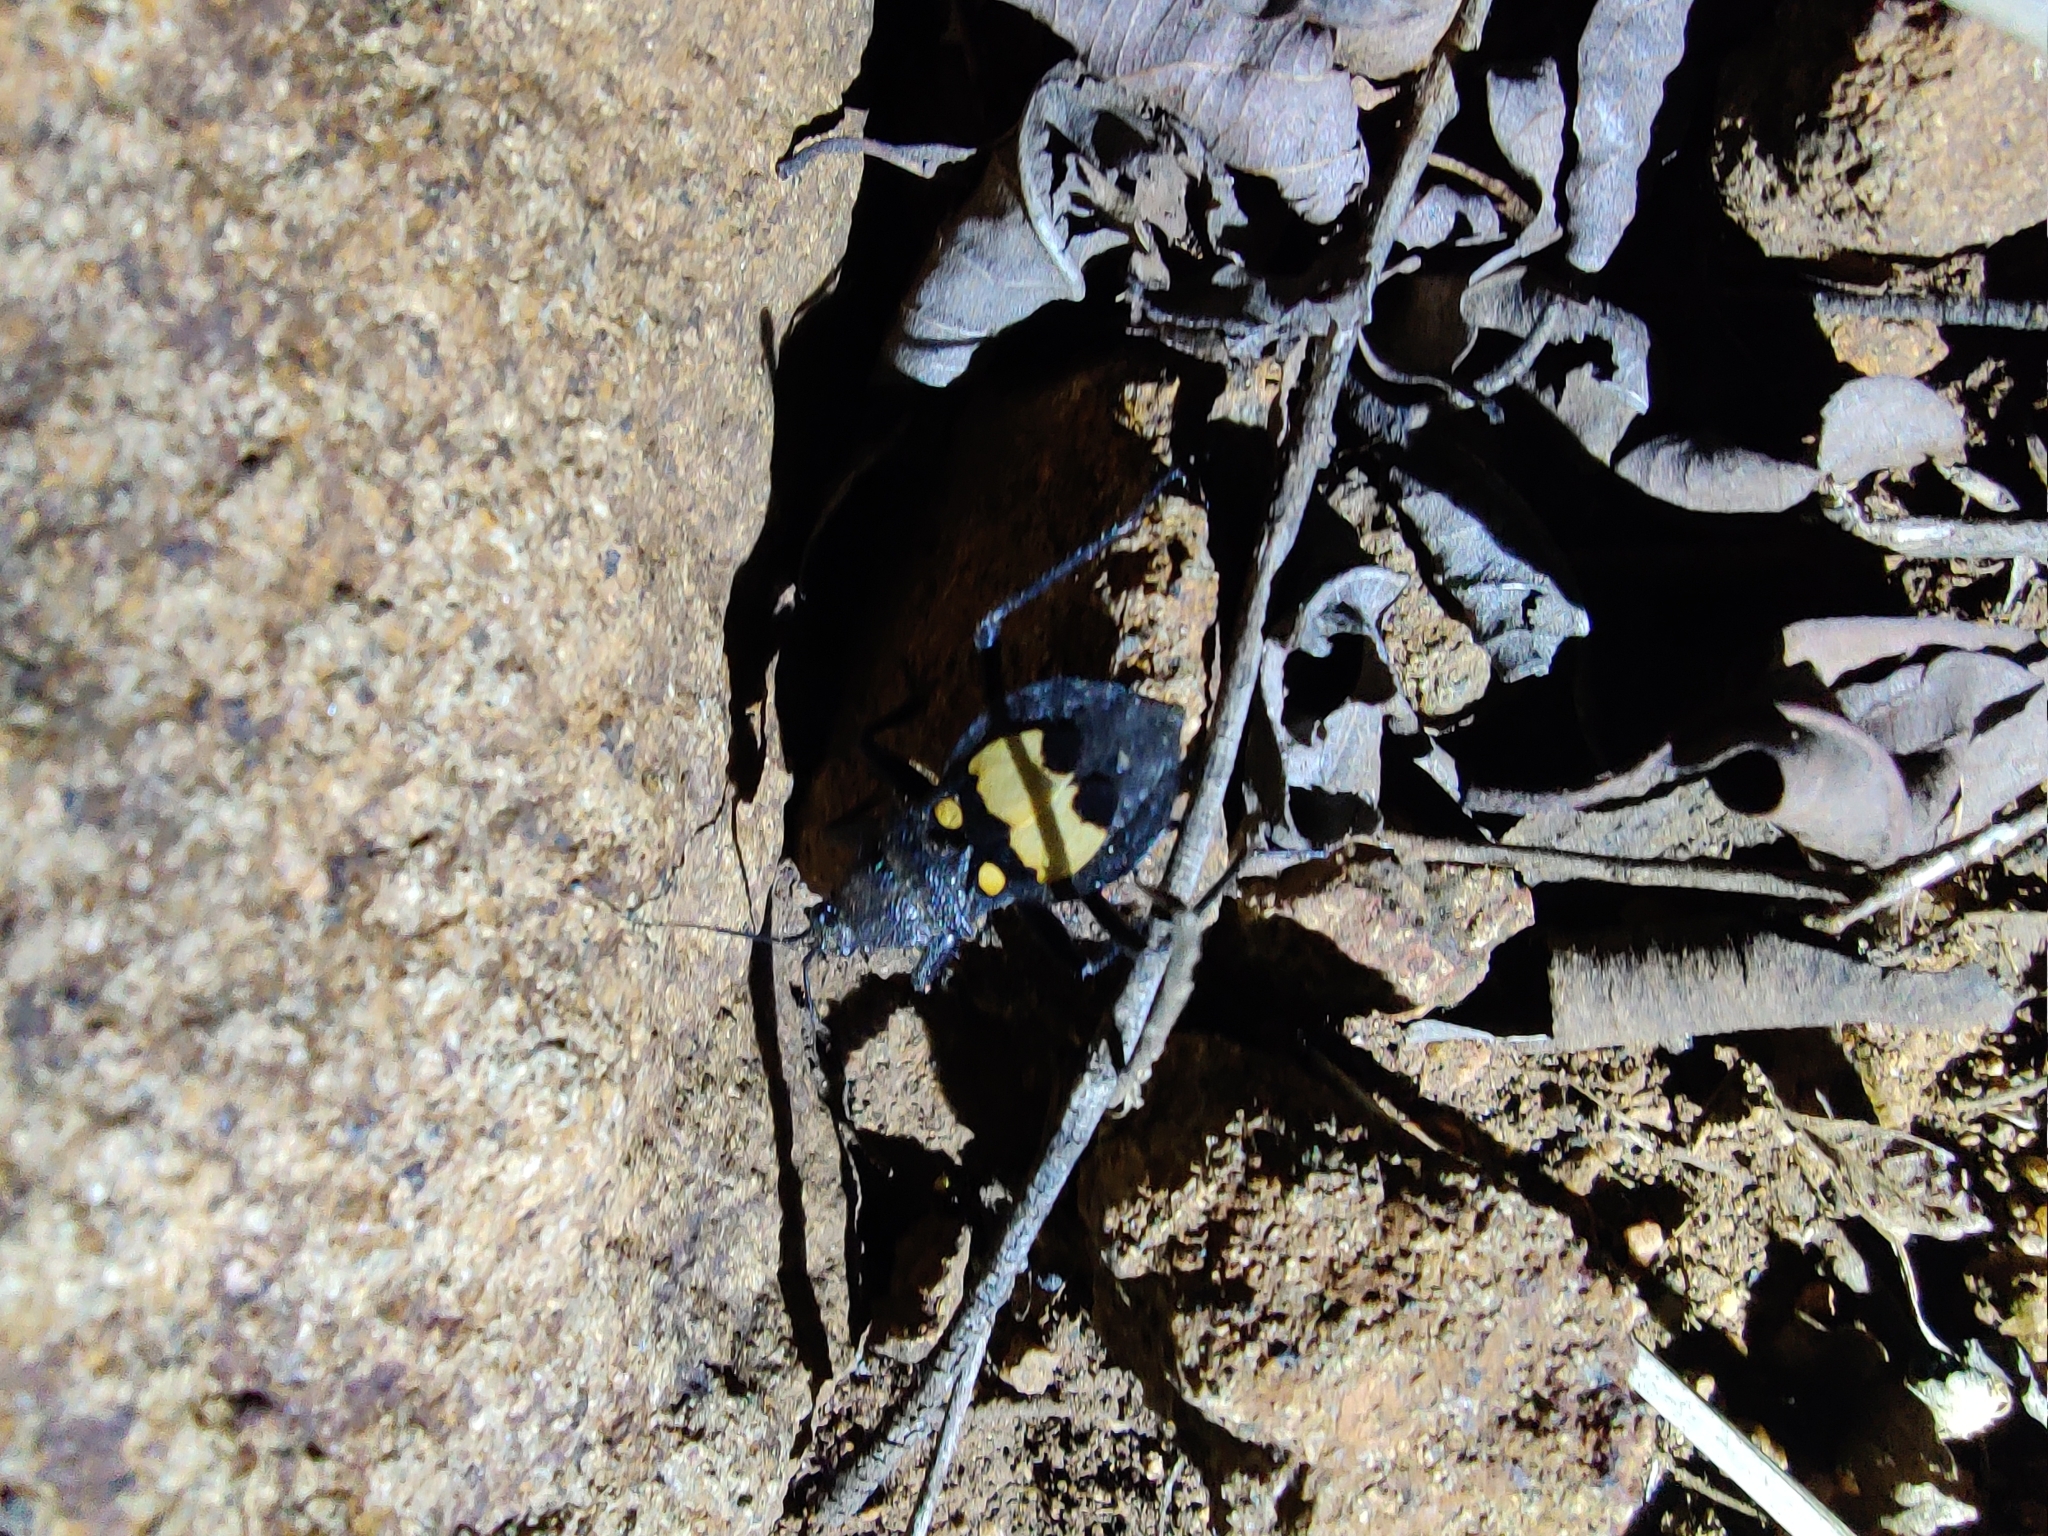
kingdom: Animalia
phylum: Arthropoda
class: Insecta
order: Hemiptera
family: Reduviidae
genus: Catamiarus
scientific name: Catamiarus brevipennis
